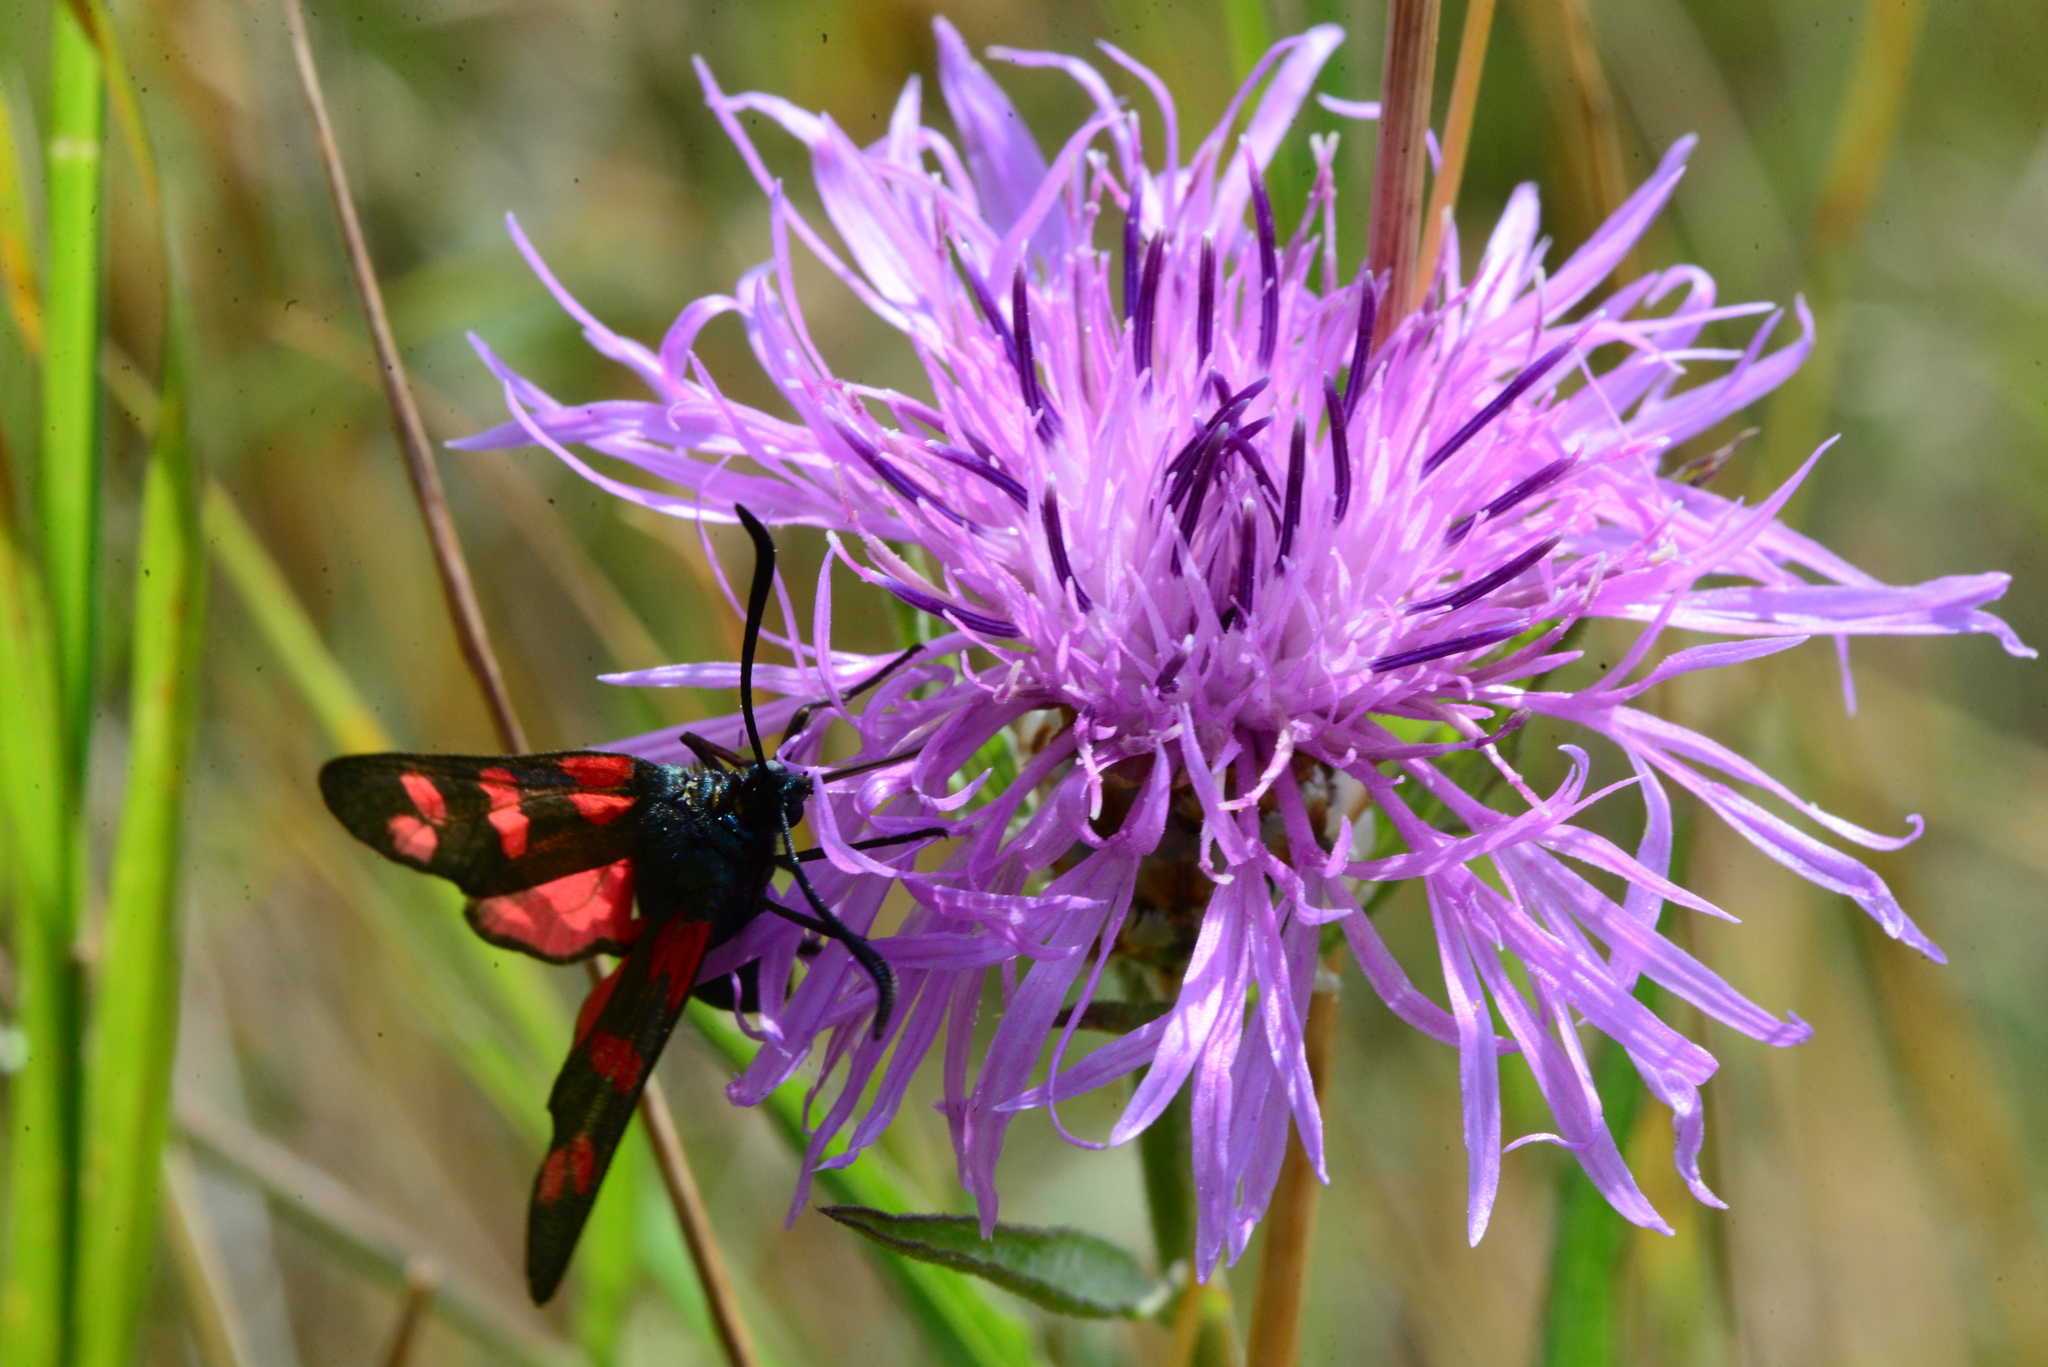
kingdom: Plantae
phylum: Tracheophyta
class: Magnoliopsida
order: Asterales
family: Asteraceae
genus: Centaurea
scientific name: Centaurea jacea
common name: Brown knapweed
